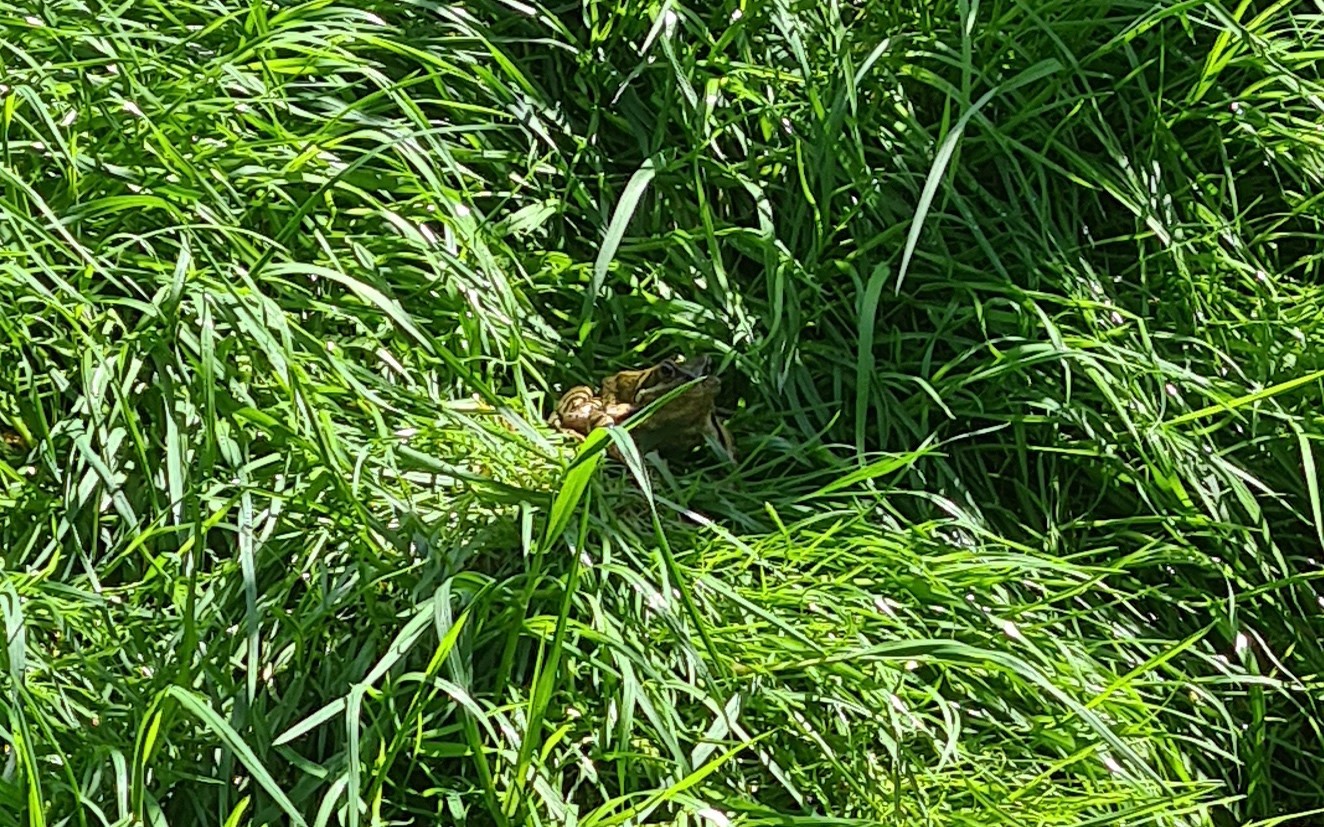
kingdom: Animalia
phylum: Chordata
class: Amphibia
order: Anura
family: Ranidae
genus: Rana
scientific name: Rana temporaria
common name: Common frog
